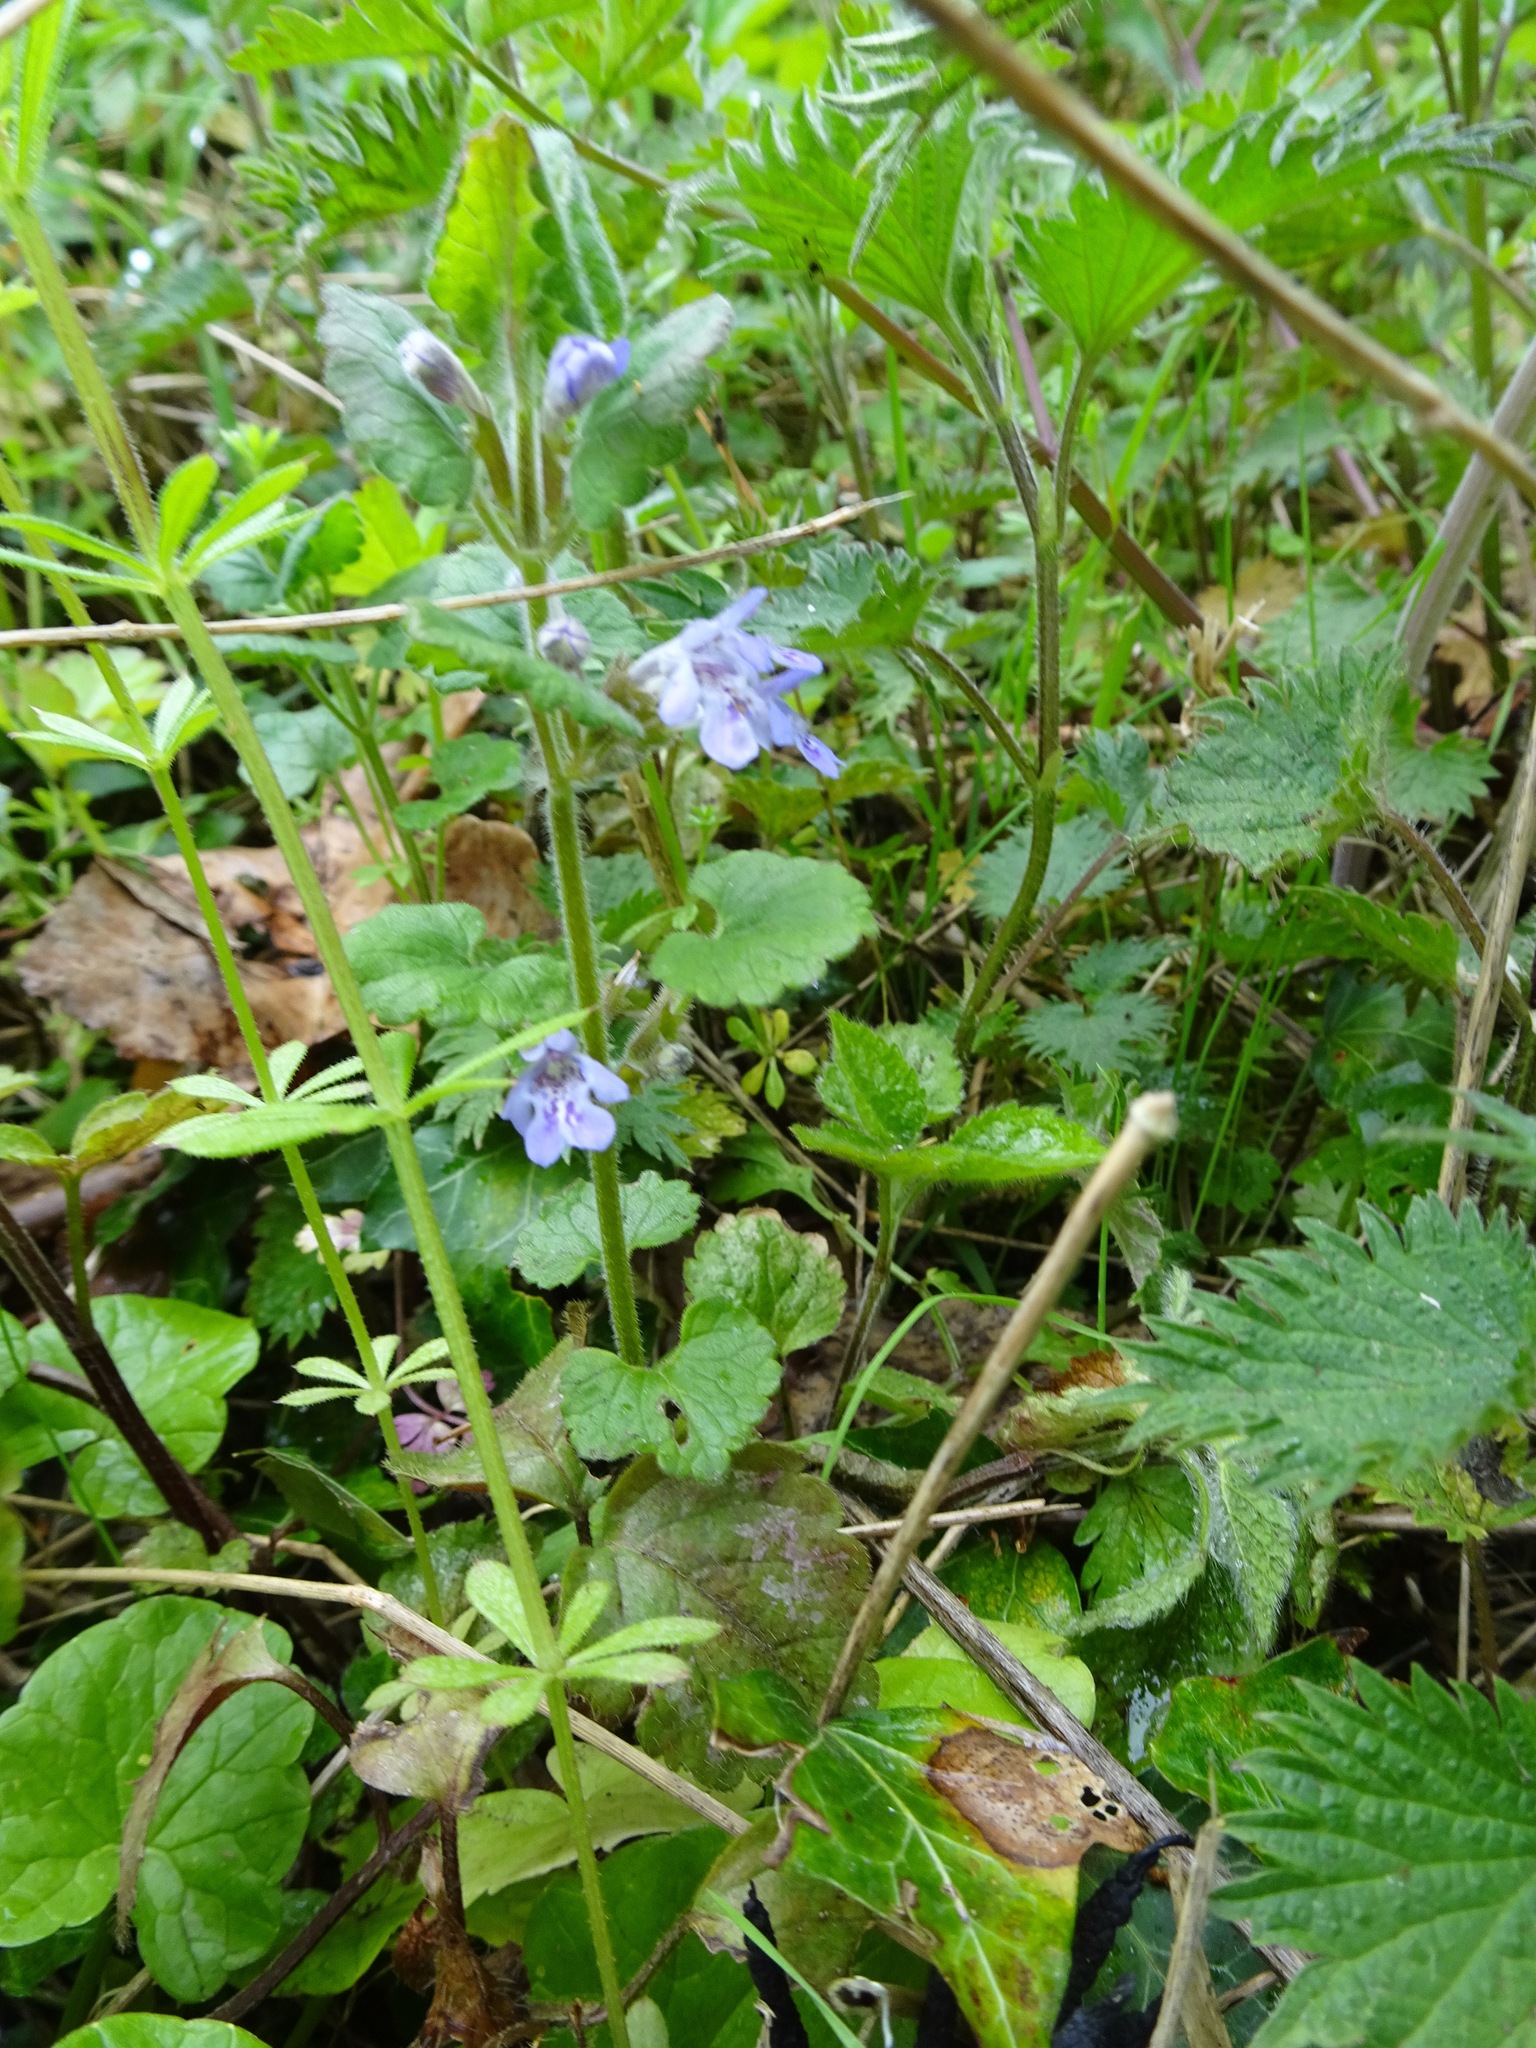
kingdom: Plantae
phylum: Tracheophyta
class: Magnoliopsida
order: Lamiales
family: Lamiaceae
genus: Glechoma
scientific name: Glechoma hederacea
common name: Ground ivy
